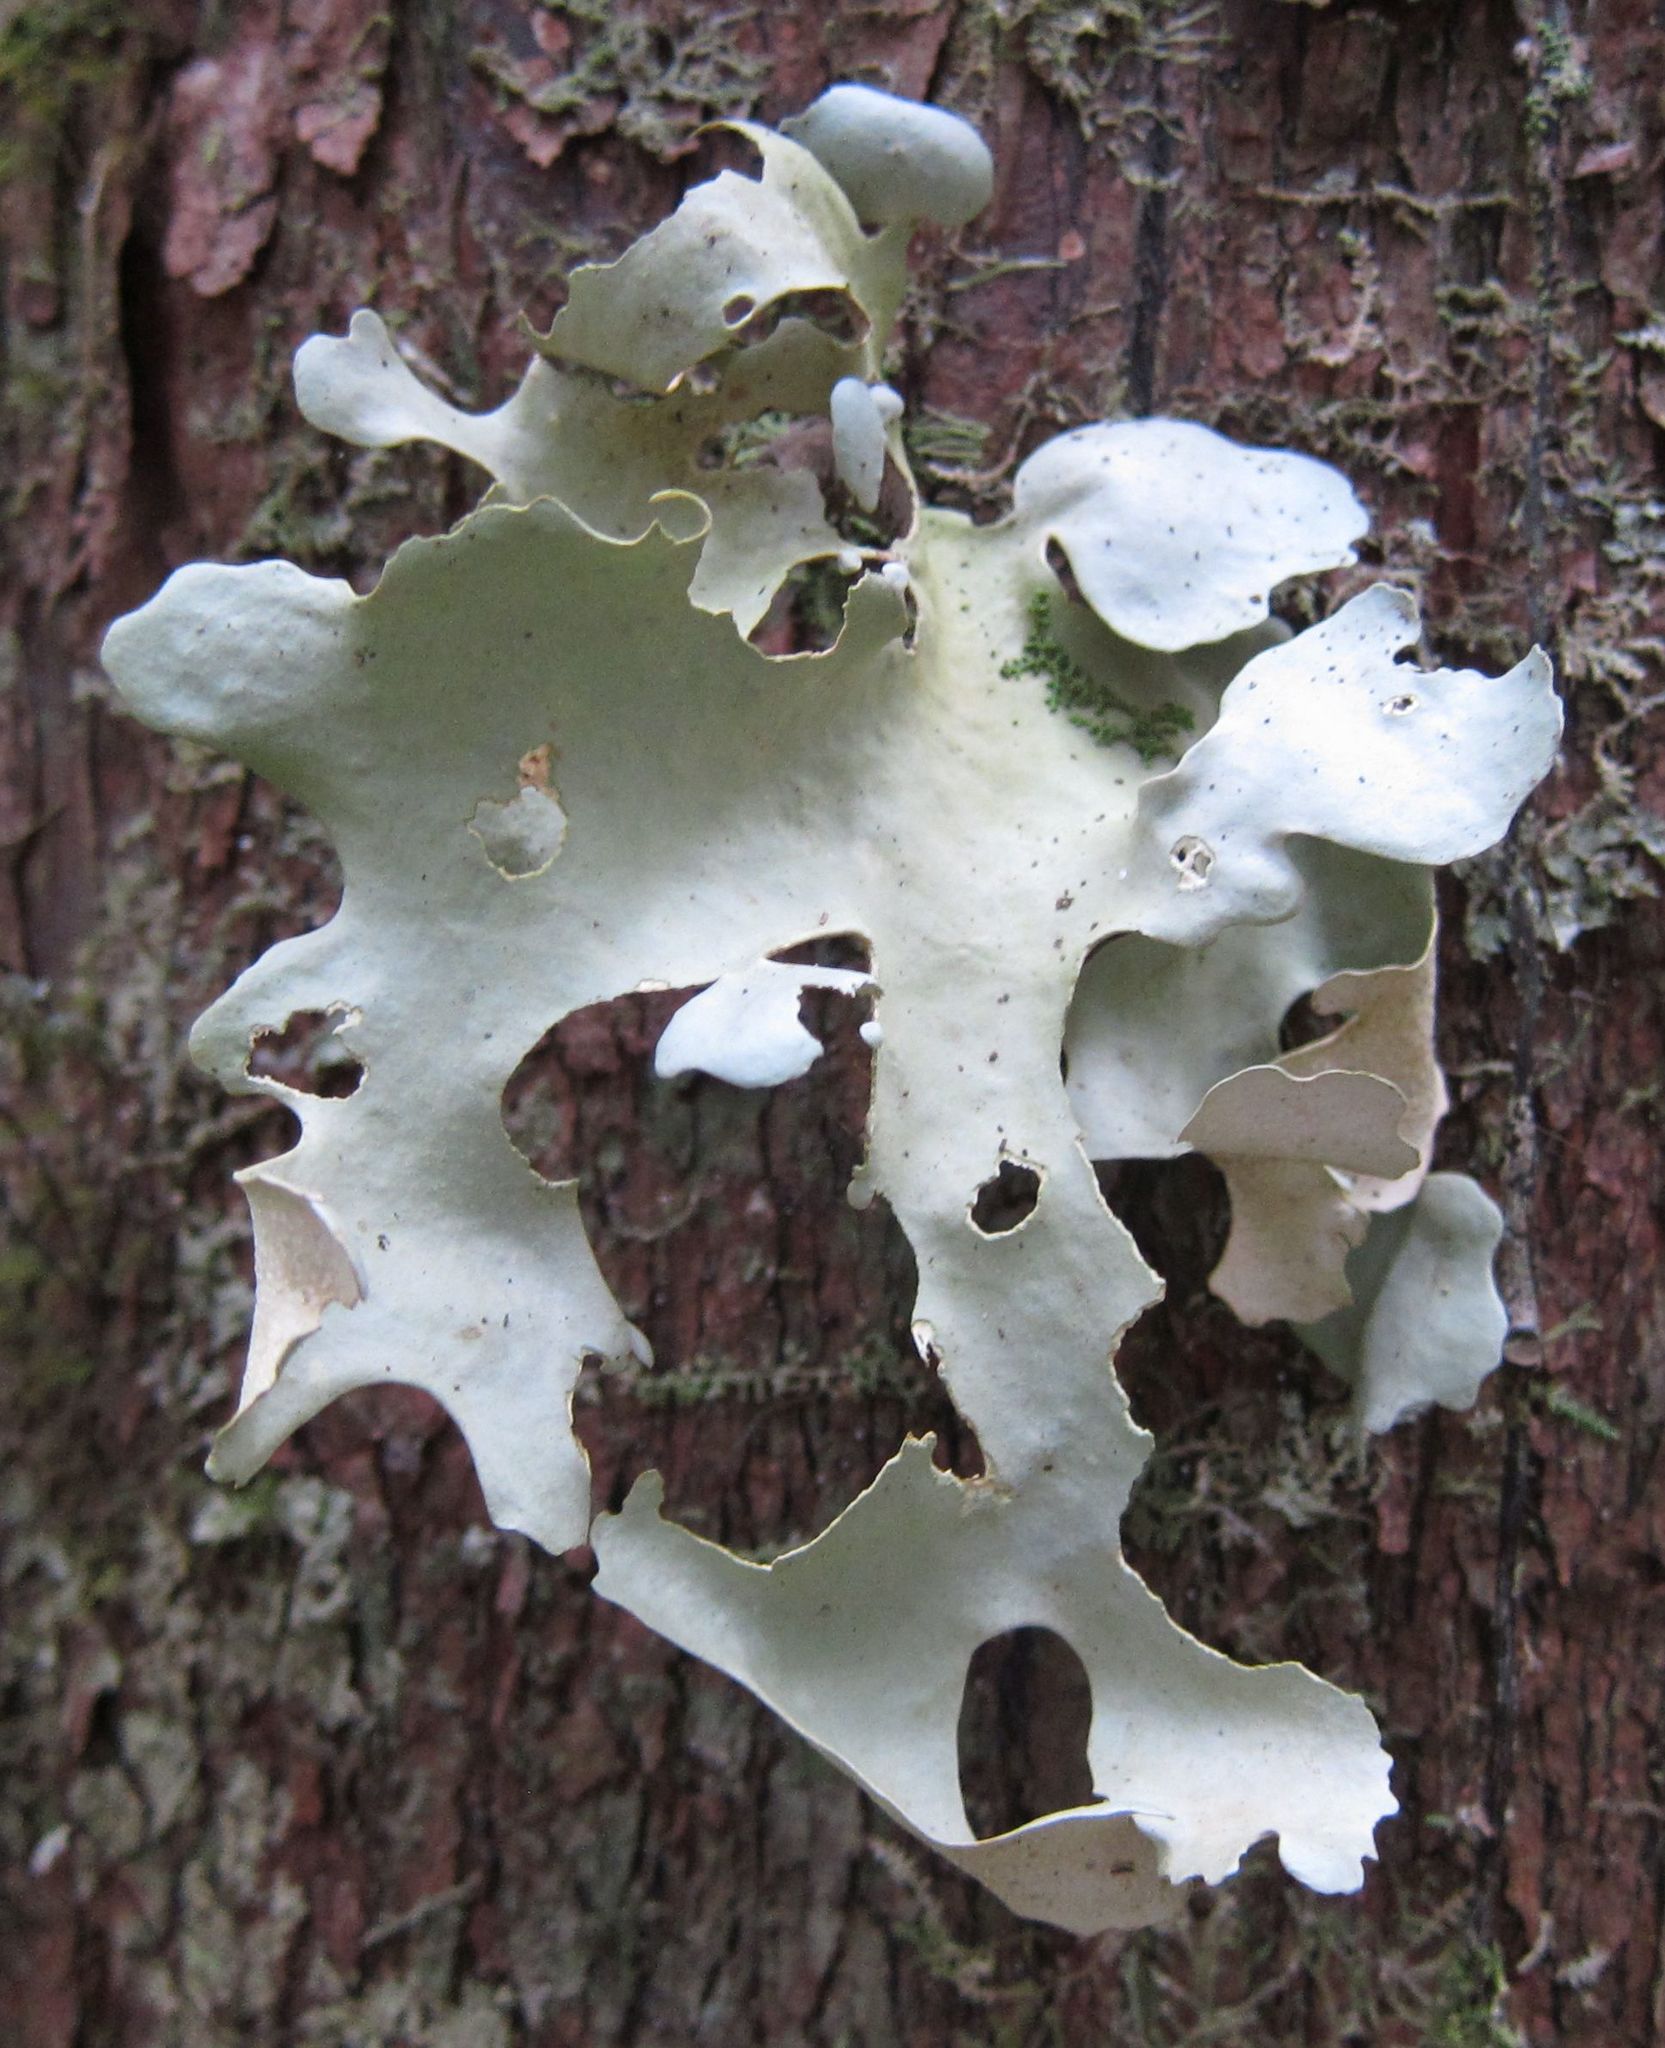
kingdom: Fungi
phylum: Ascomycota
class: Lecanoromycetes
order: Peltigerales
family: Lobariaceae
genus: Sticta
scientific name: Sticta latifrons
